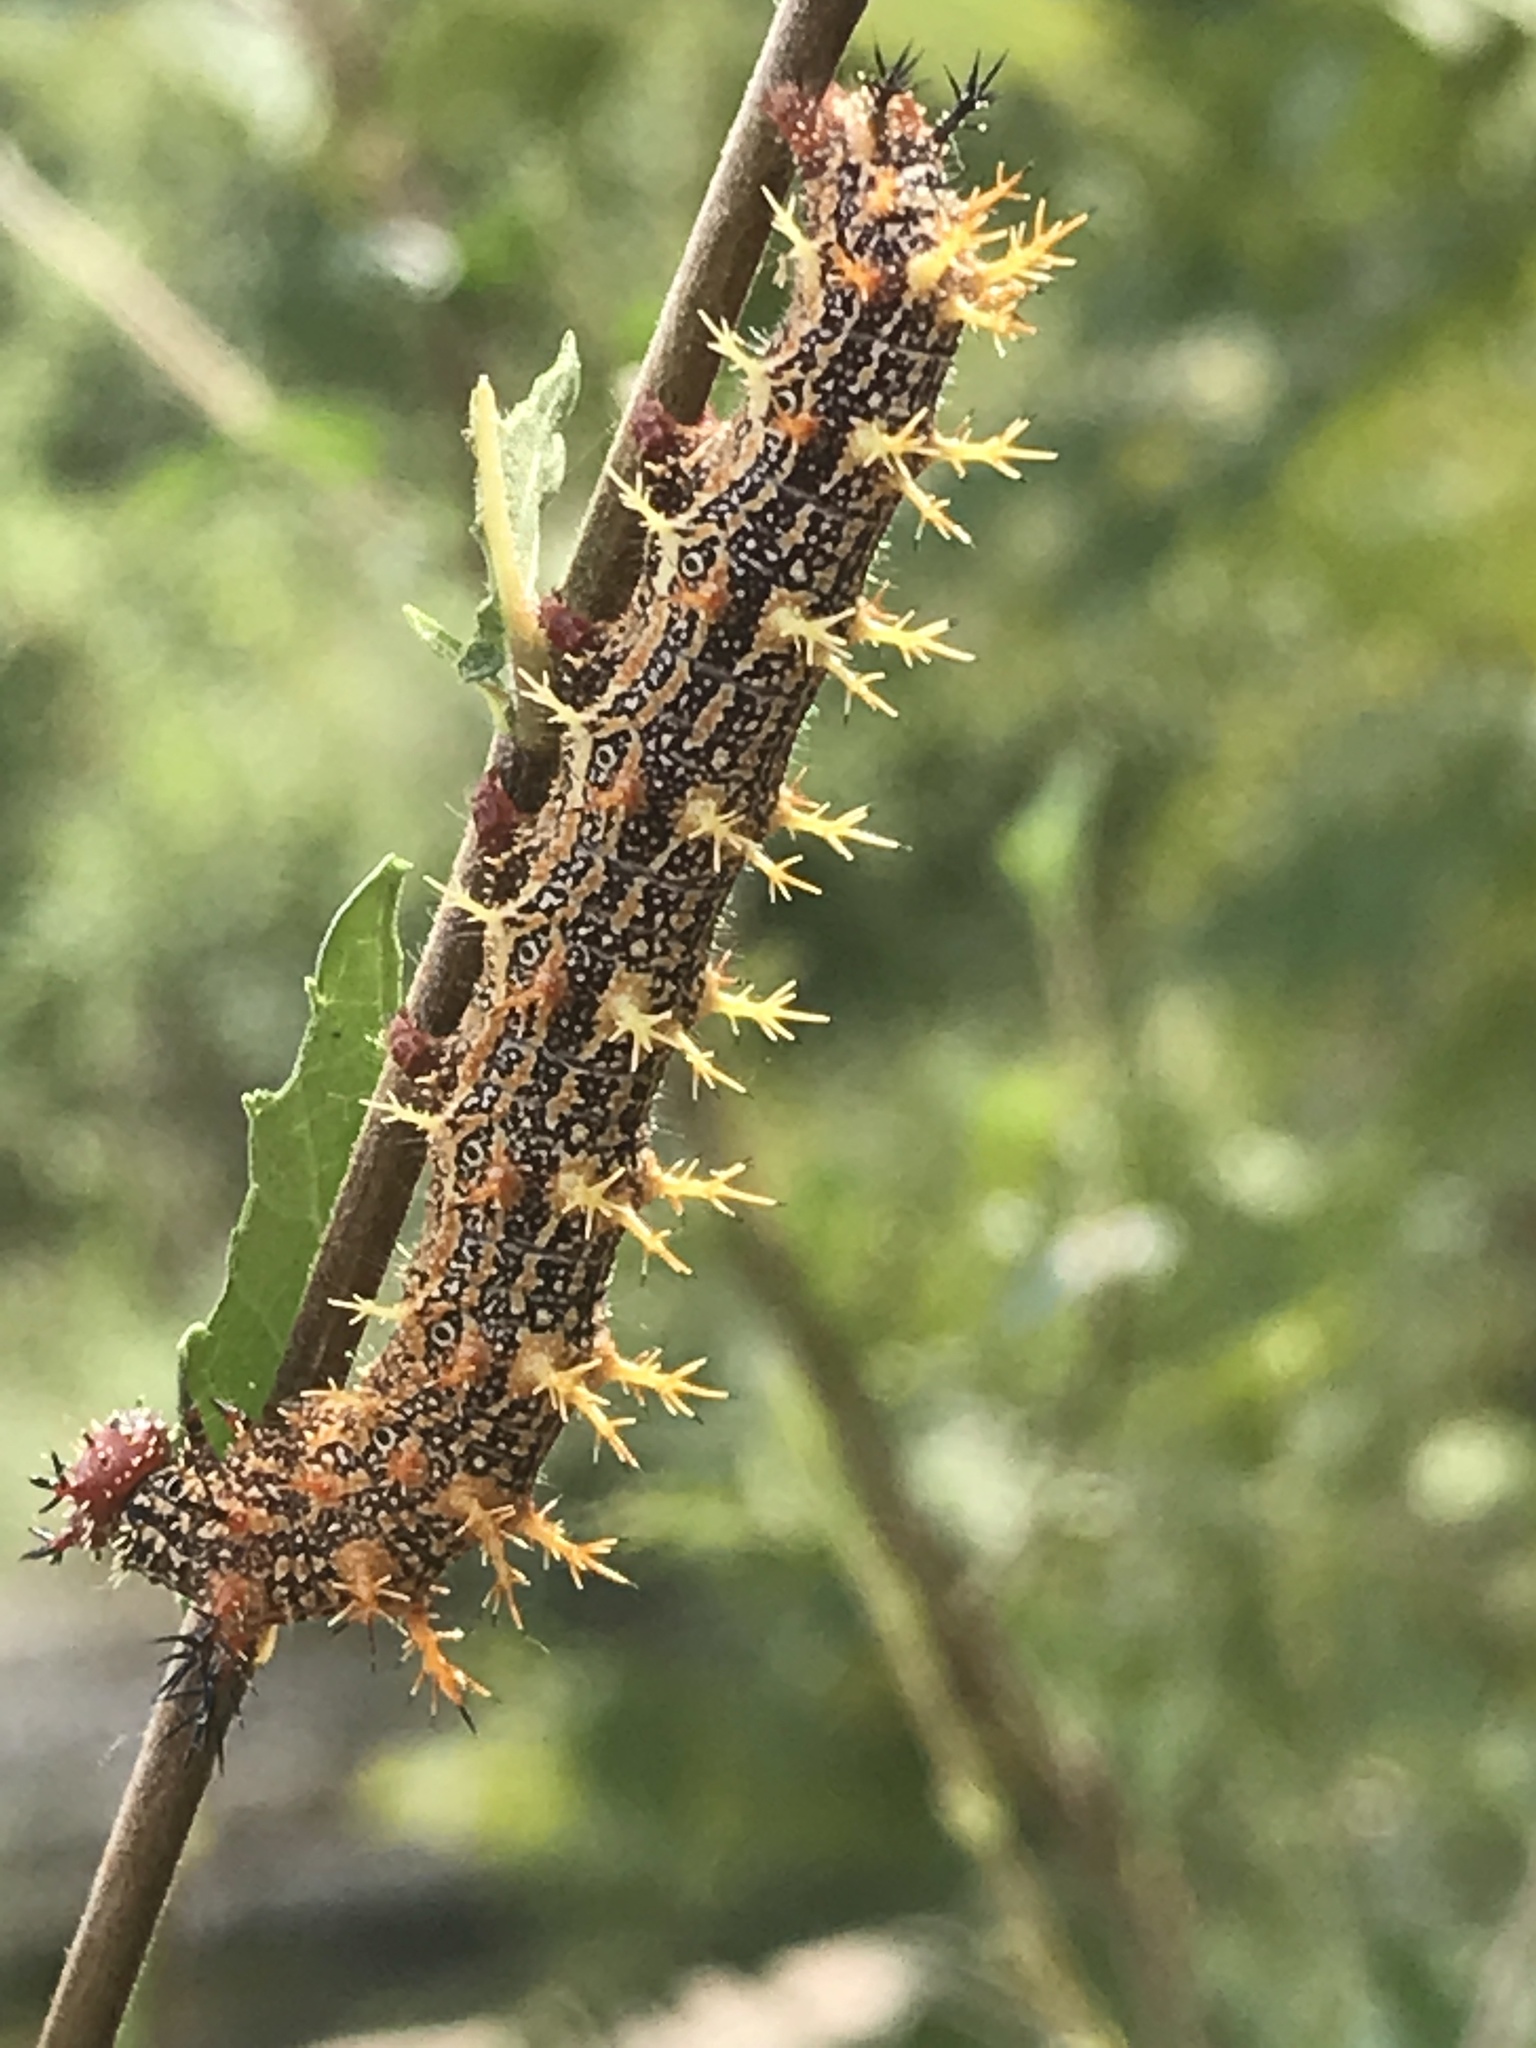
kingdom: Animalia
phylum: Arthropoda
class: Insecta
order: Lepidoptera
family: Nymphalidae
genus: Polygonia
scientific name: Polygonia interrogationis
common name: Question mark
